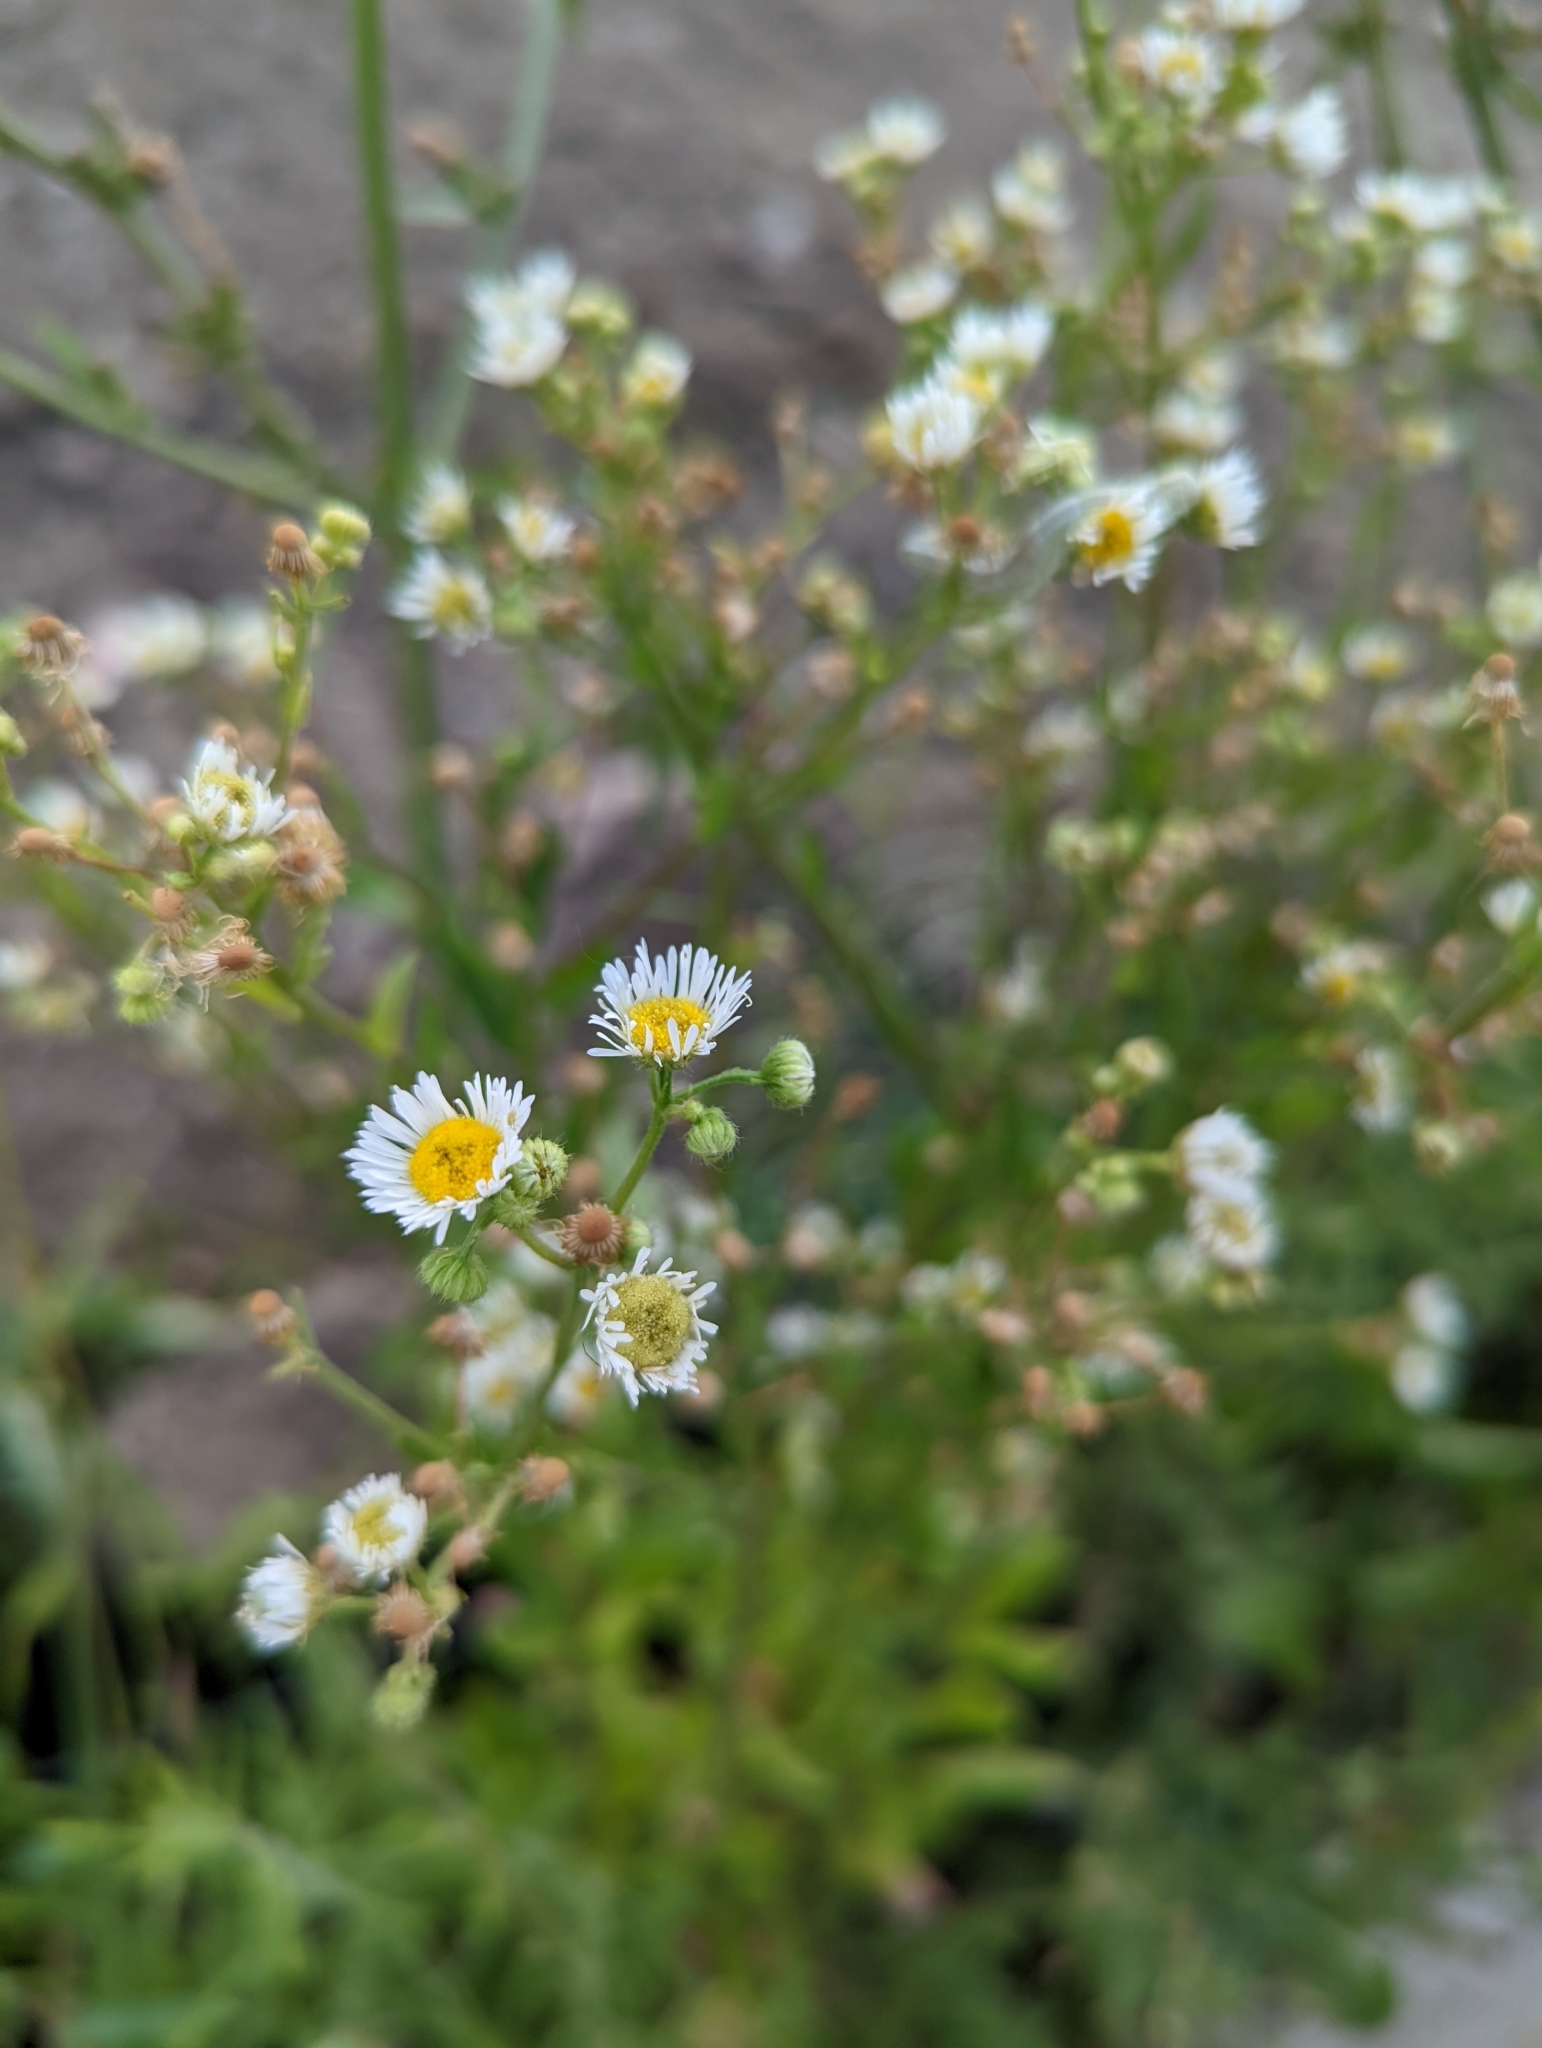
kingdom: Plantae
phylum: Tracheophyta
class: Magnoliopsida
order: Asterales
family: Asteraceae
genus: Erigeron
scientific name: Erigeron annuus
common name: Tall fleabane
